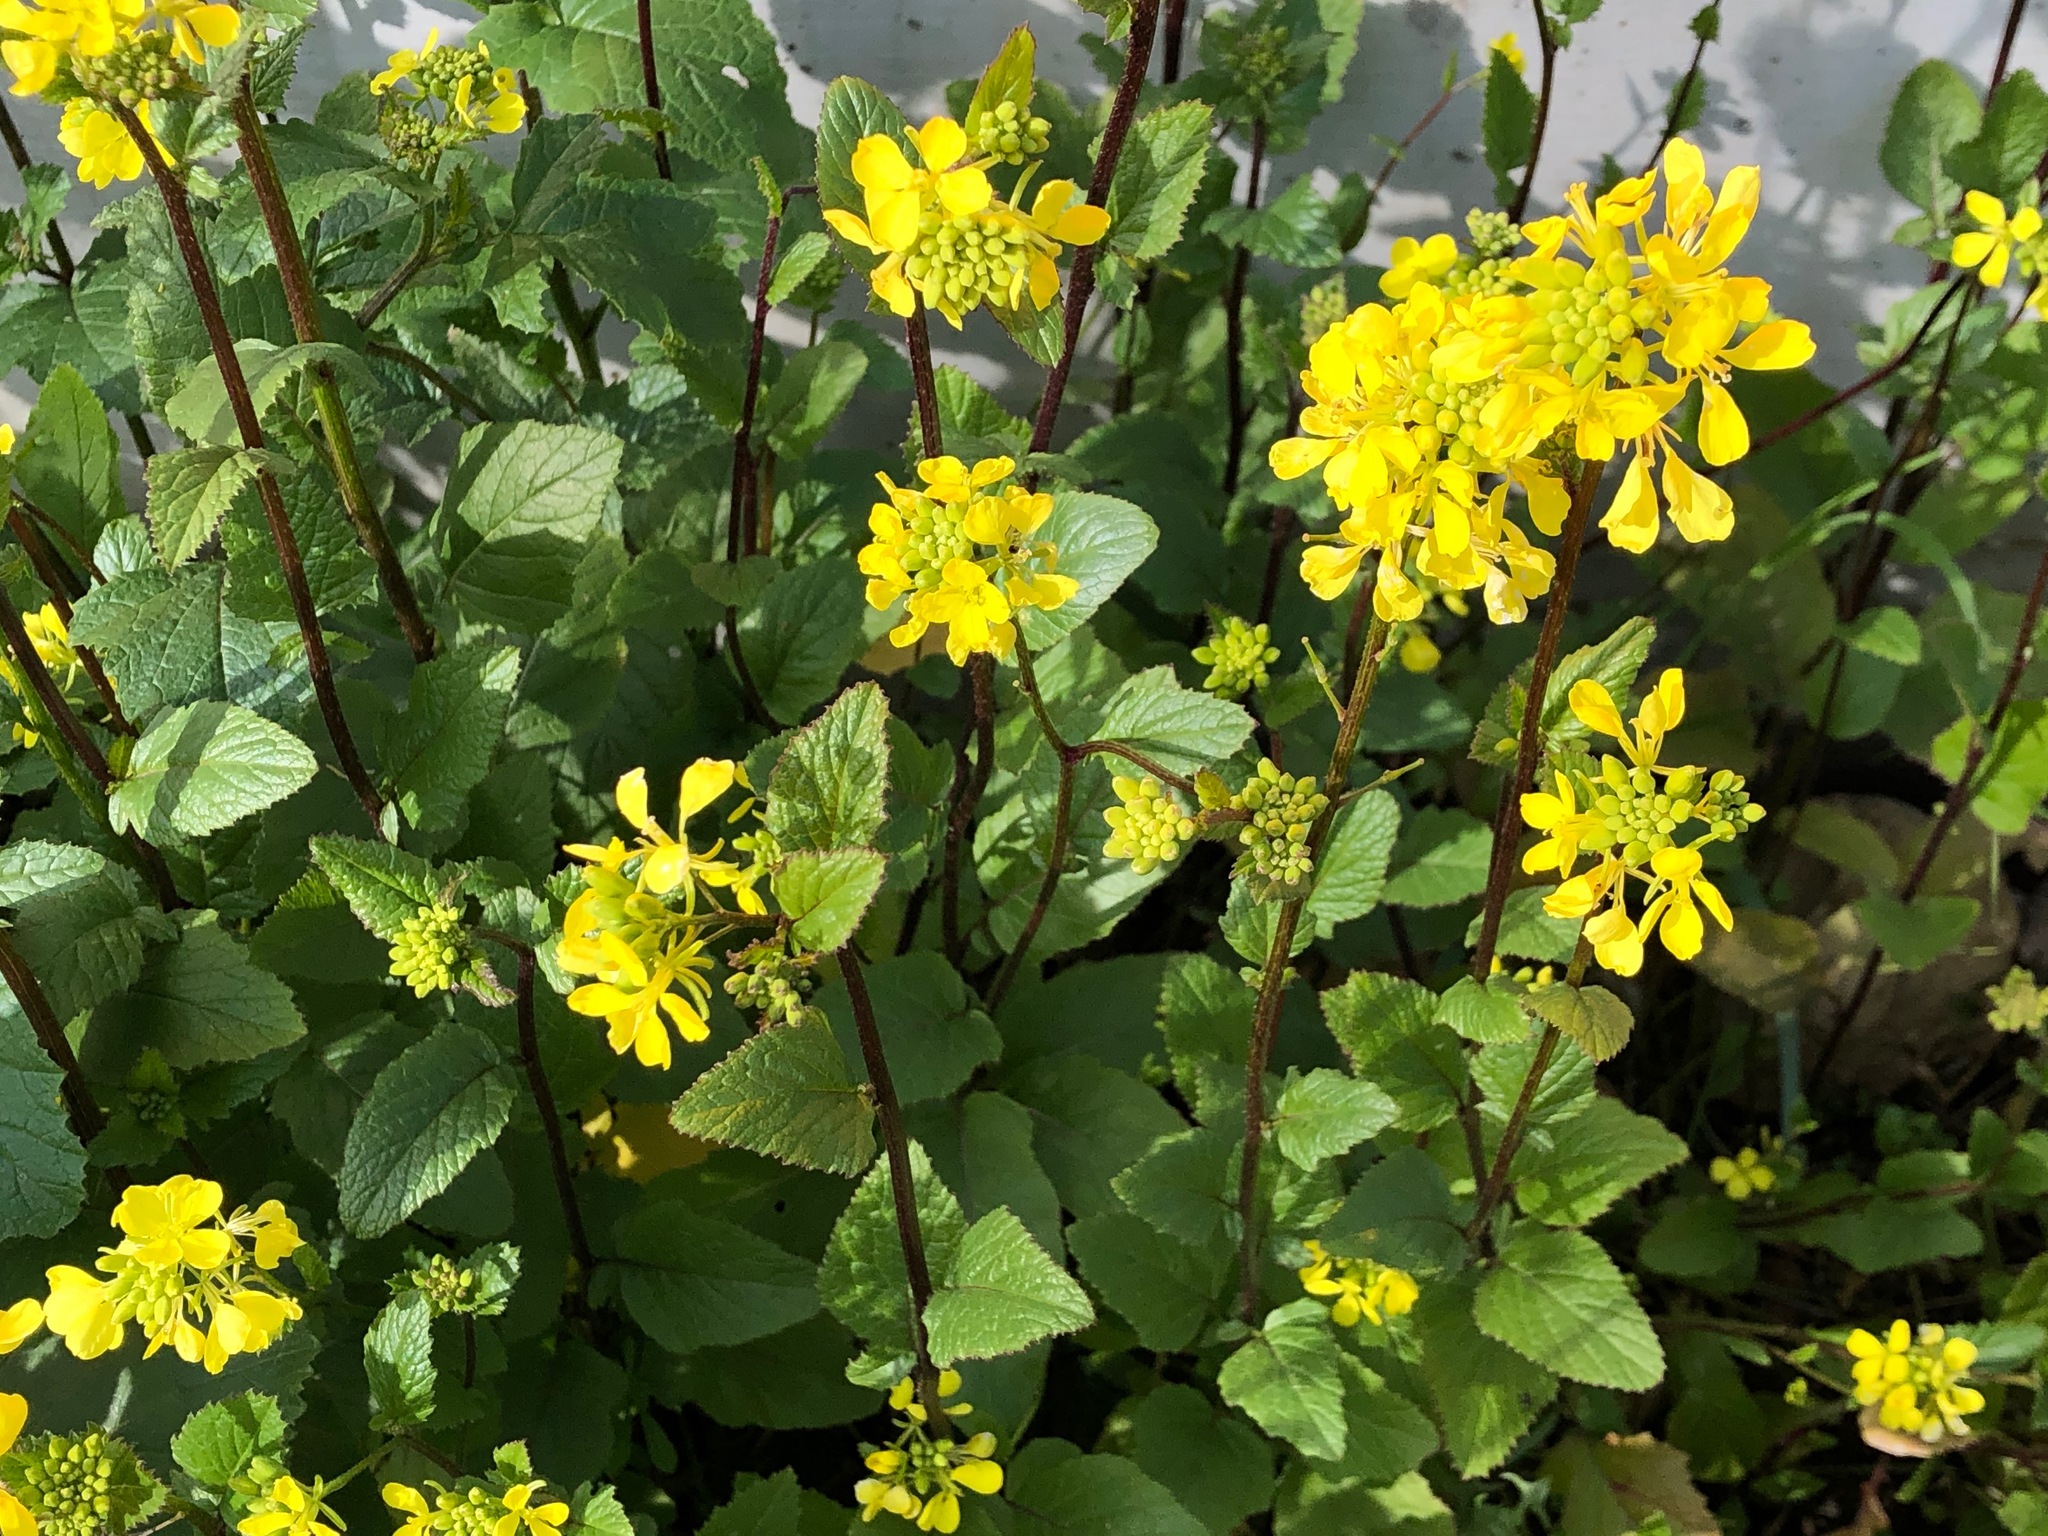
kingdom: Plantae
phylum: Tracheophyta
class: Magnoliopsida
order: Brassicales
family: Brassicaceae
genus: Sinapis
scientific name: Sinapis arvensis
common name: Charlock
